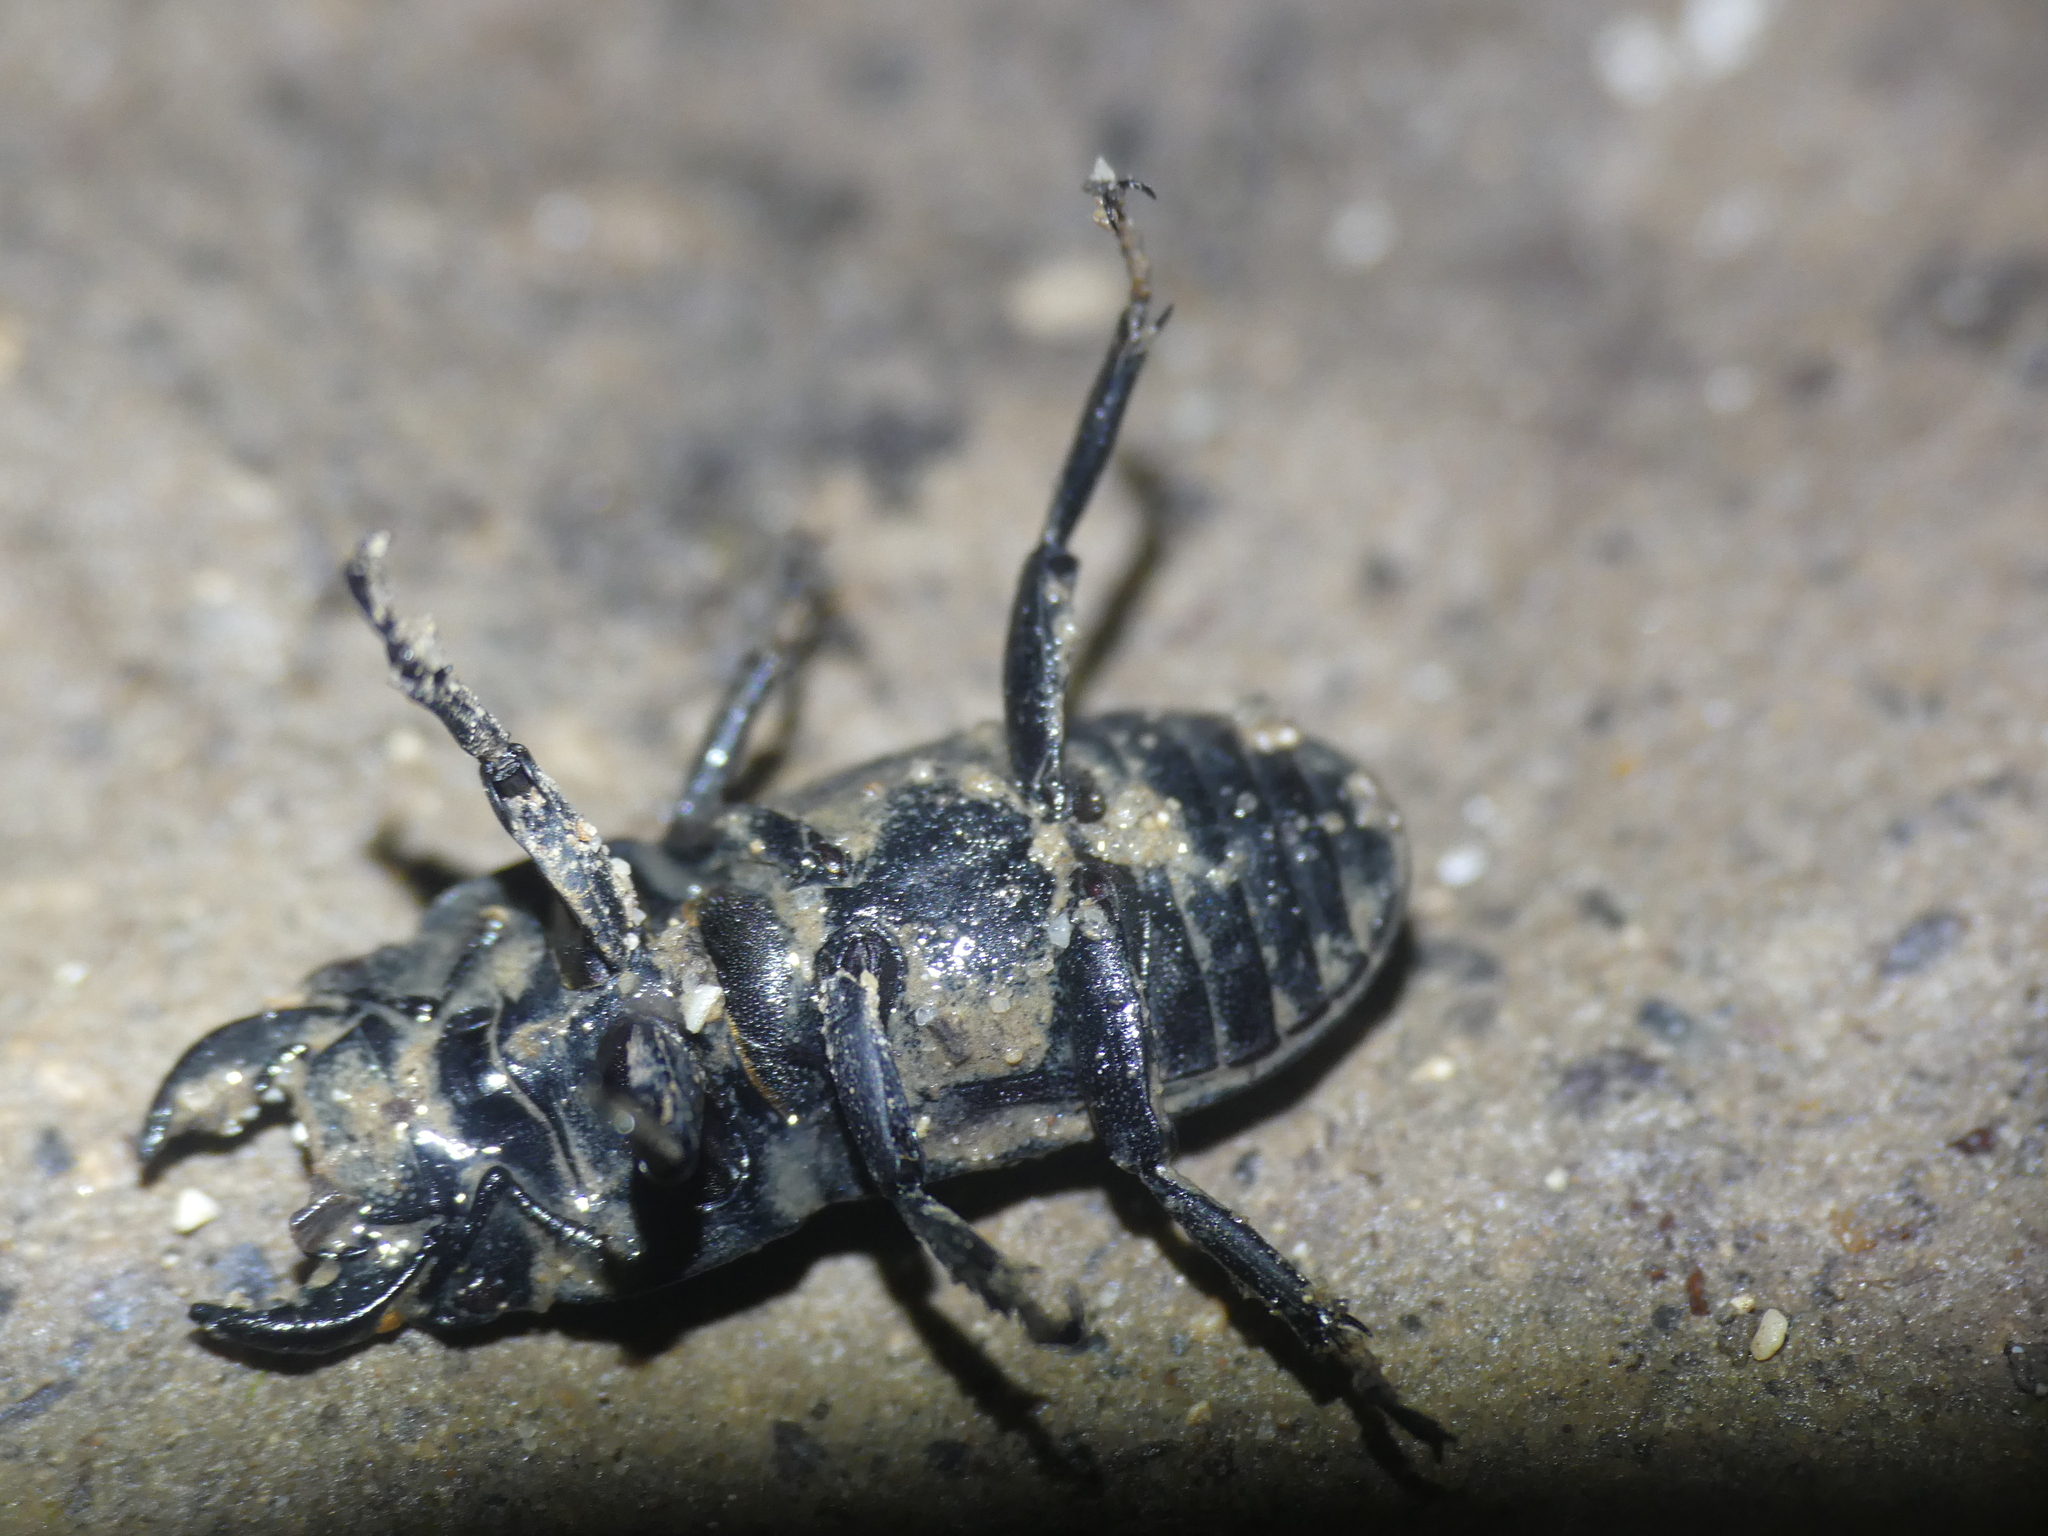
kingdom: Animalia
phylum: Arthropoda
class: Insecta
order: Coleoptera
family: Lucanidae
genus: Dorcus
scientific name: Dorcus parallelipipedus
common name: Lesser stag beetle
